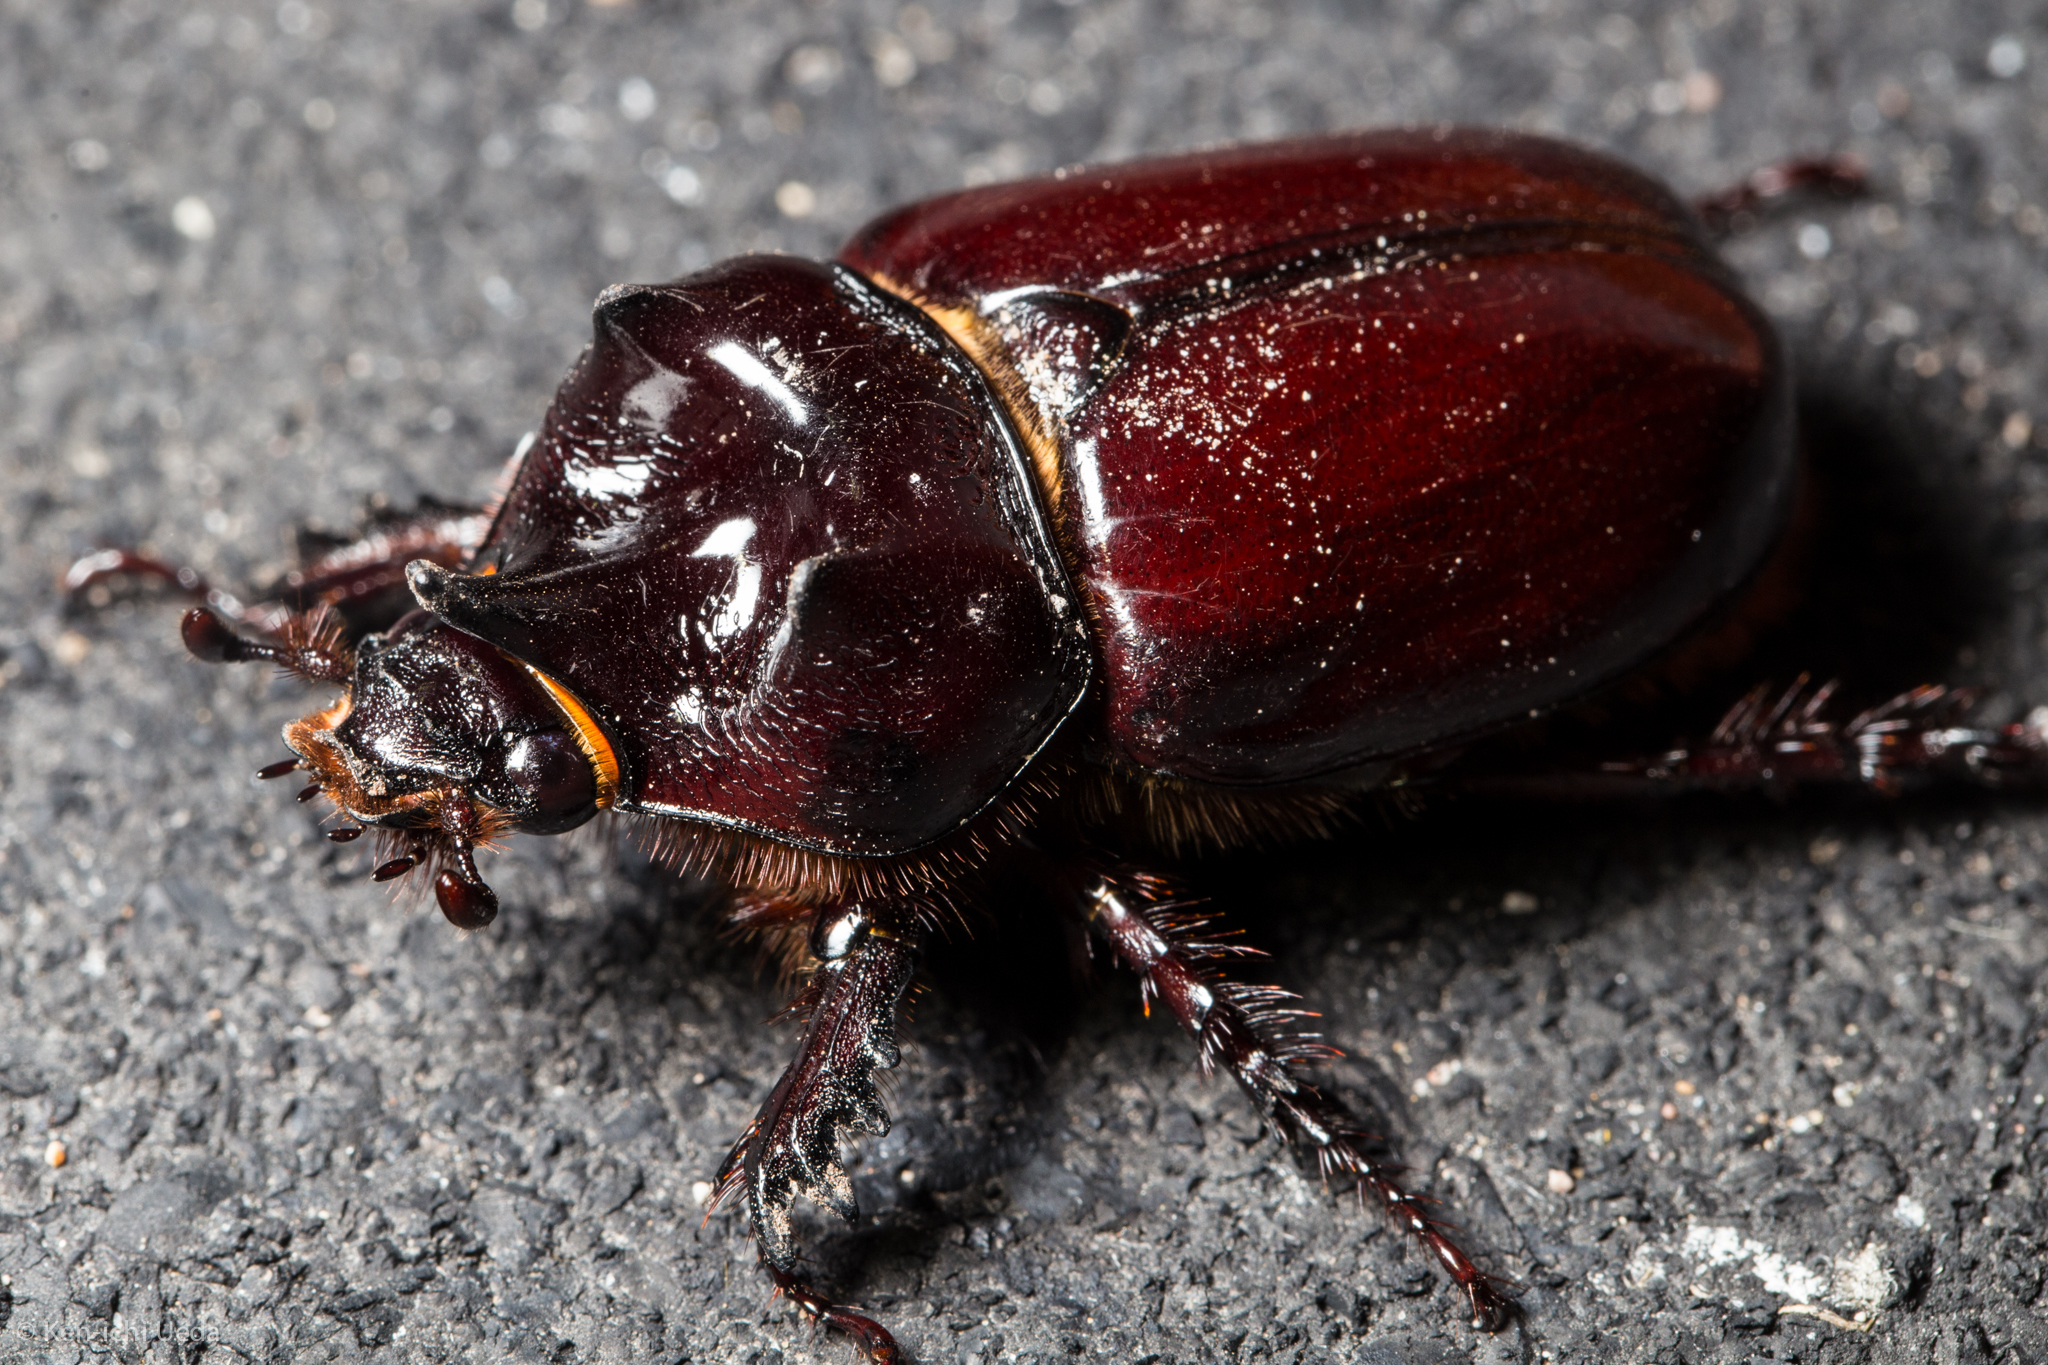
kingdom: Animalia
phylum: Arthropoda
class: Insecta
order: Coleoptera
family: Scarabaeidae
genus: Strategus
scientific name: Strategus aloeus
